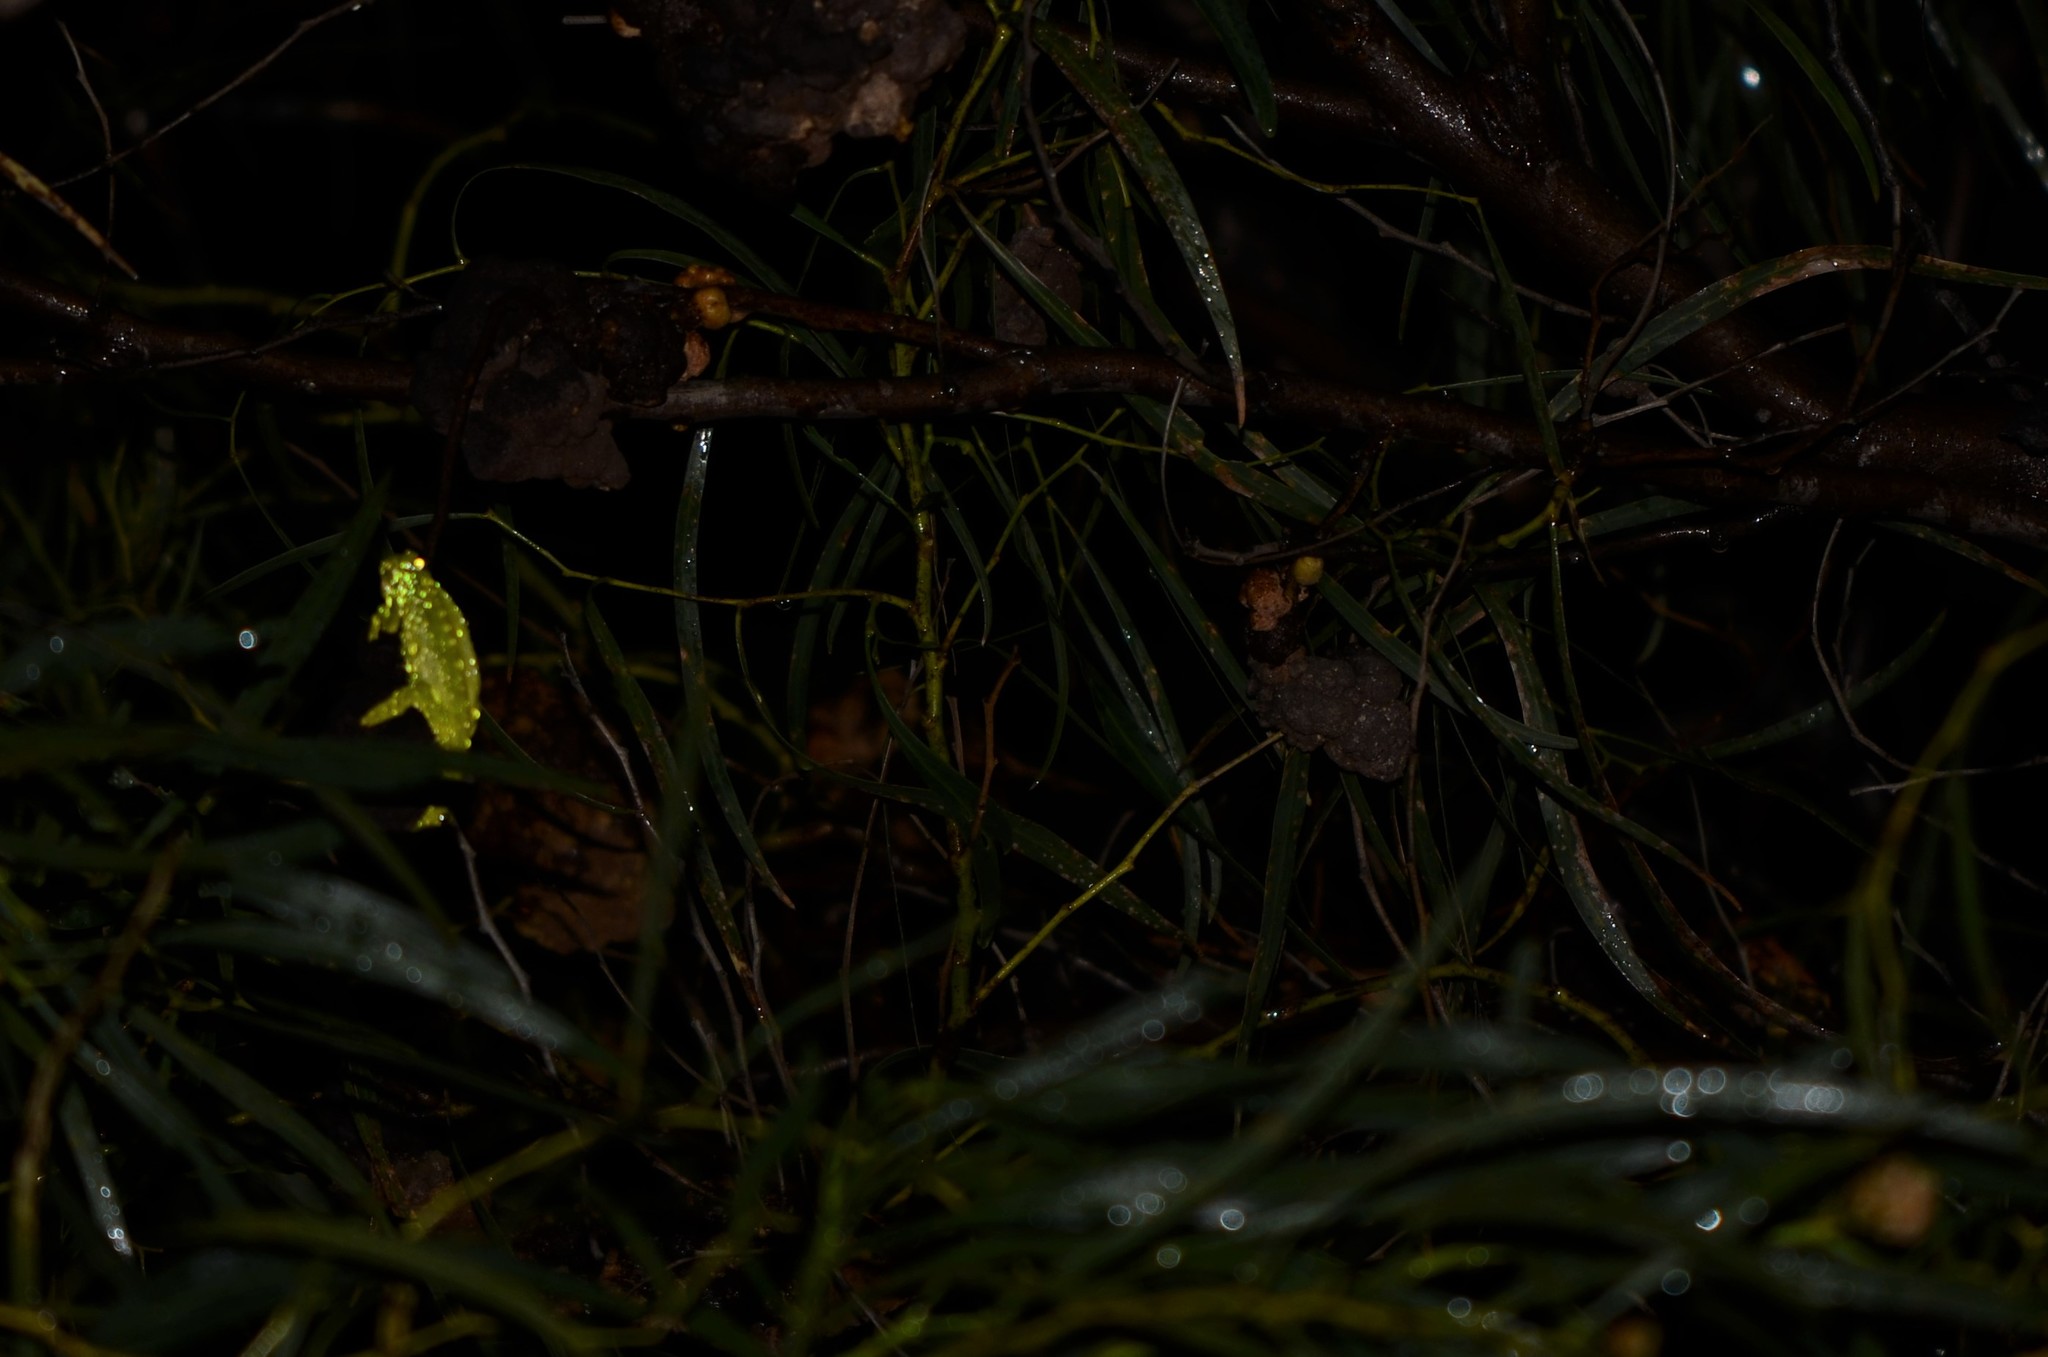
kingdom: Animalia
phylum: Chordata
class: Squamata
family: Chamaeleonidae
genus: Bradypodion
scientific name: Bradypodion pumilum
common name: Cape dwarf chameleon
